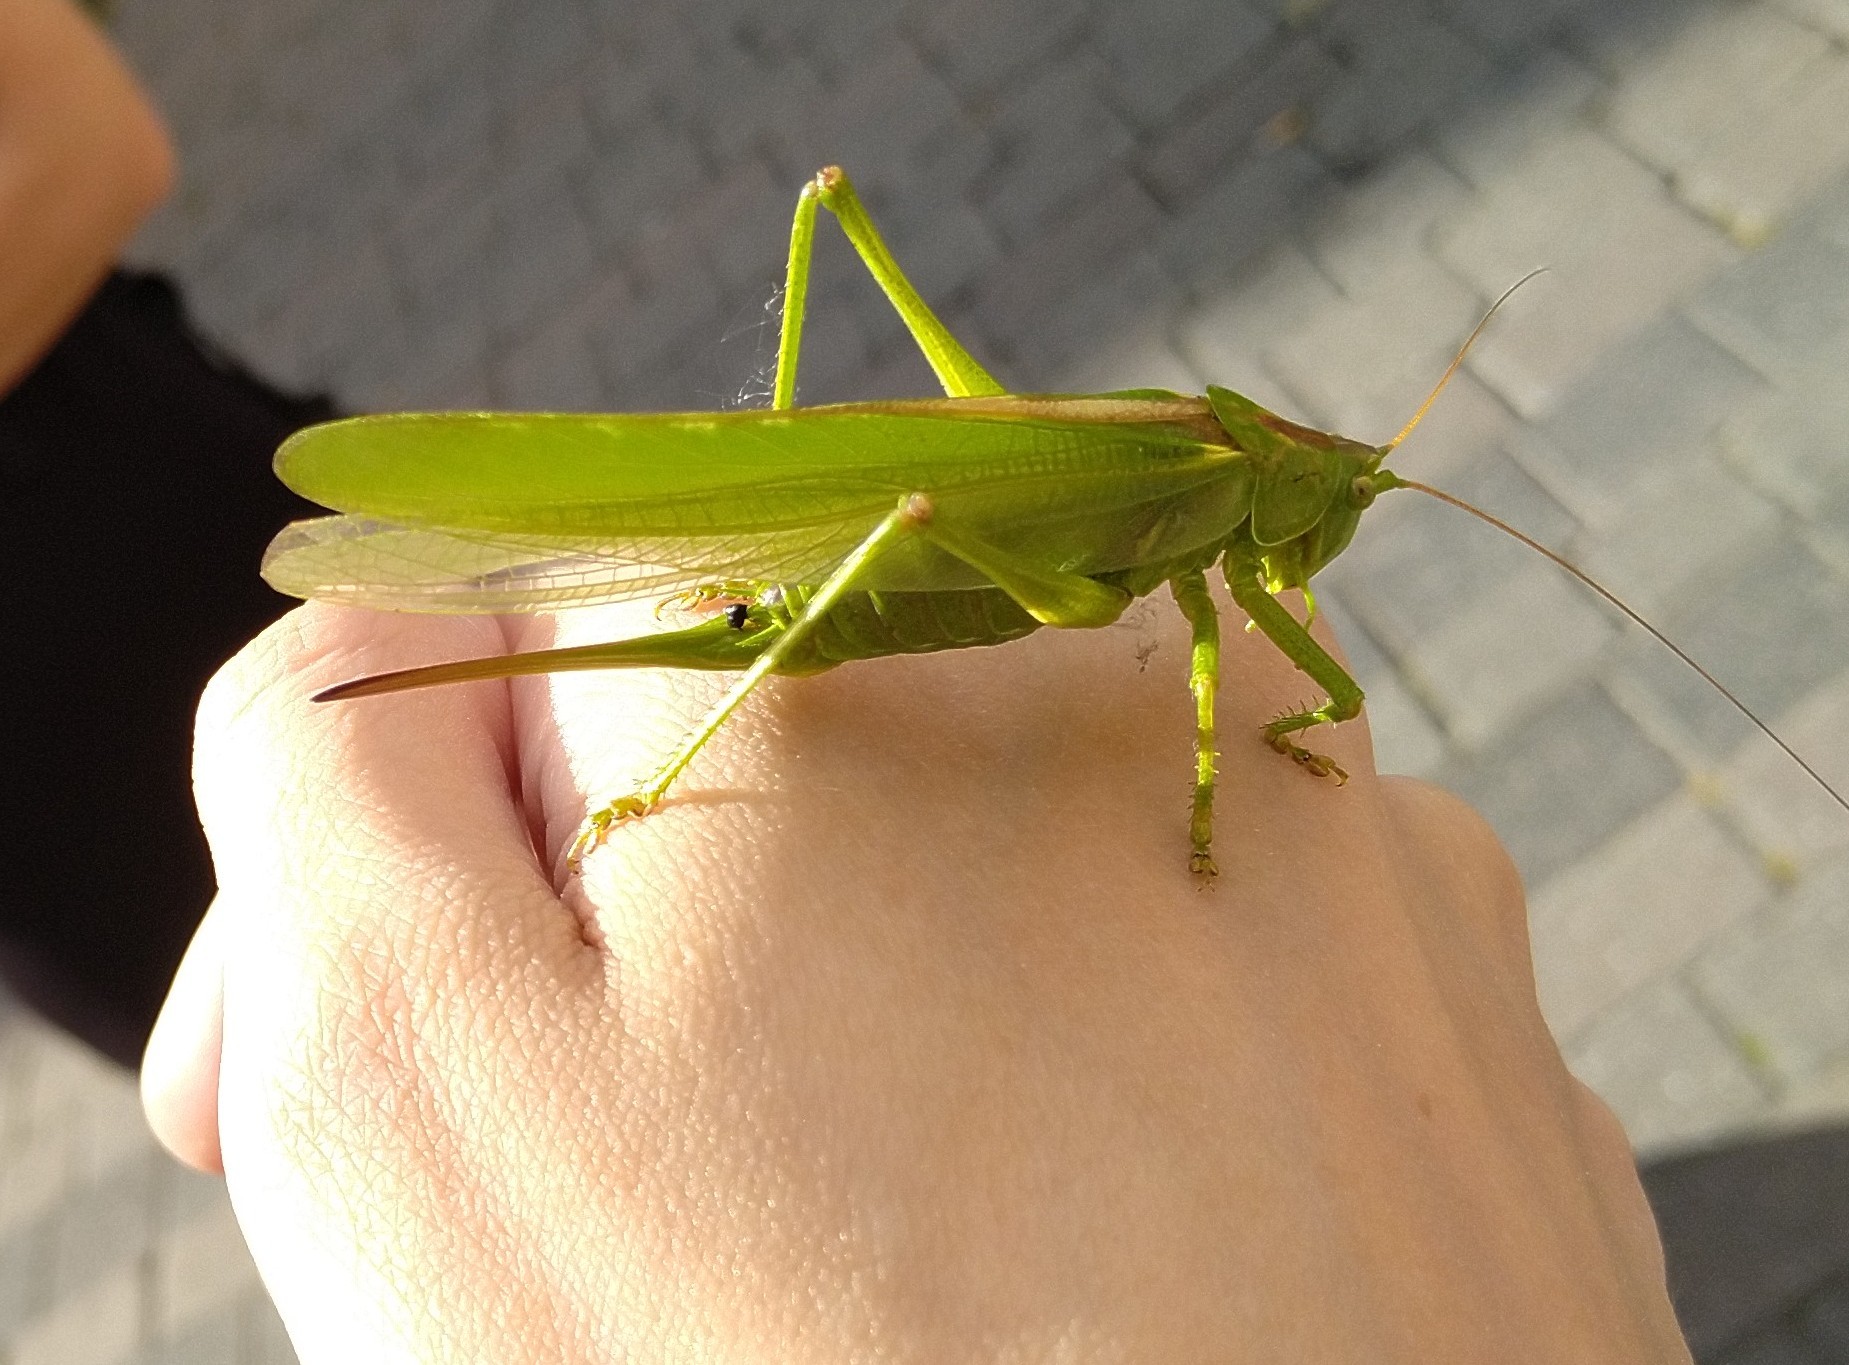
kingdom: Animalia
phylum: Arthropoda
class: Insecta
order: Orthoptera
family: Tettigoniidae
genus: Tettigonia
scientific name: Tettigonia viridissima
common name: Great green bush-cricket
